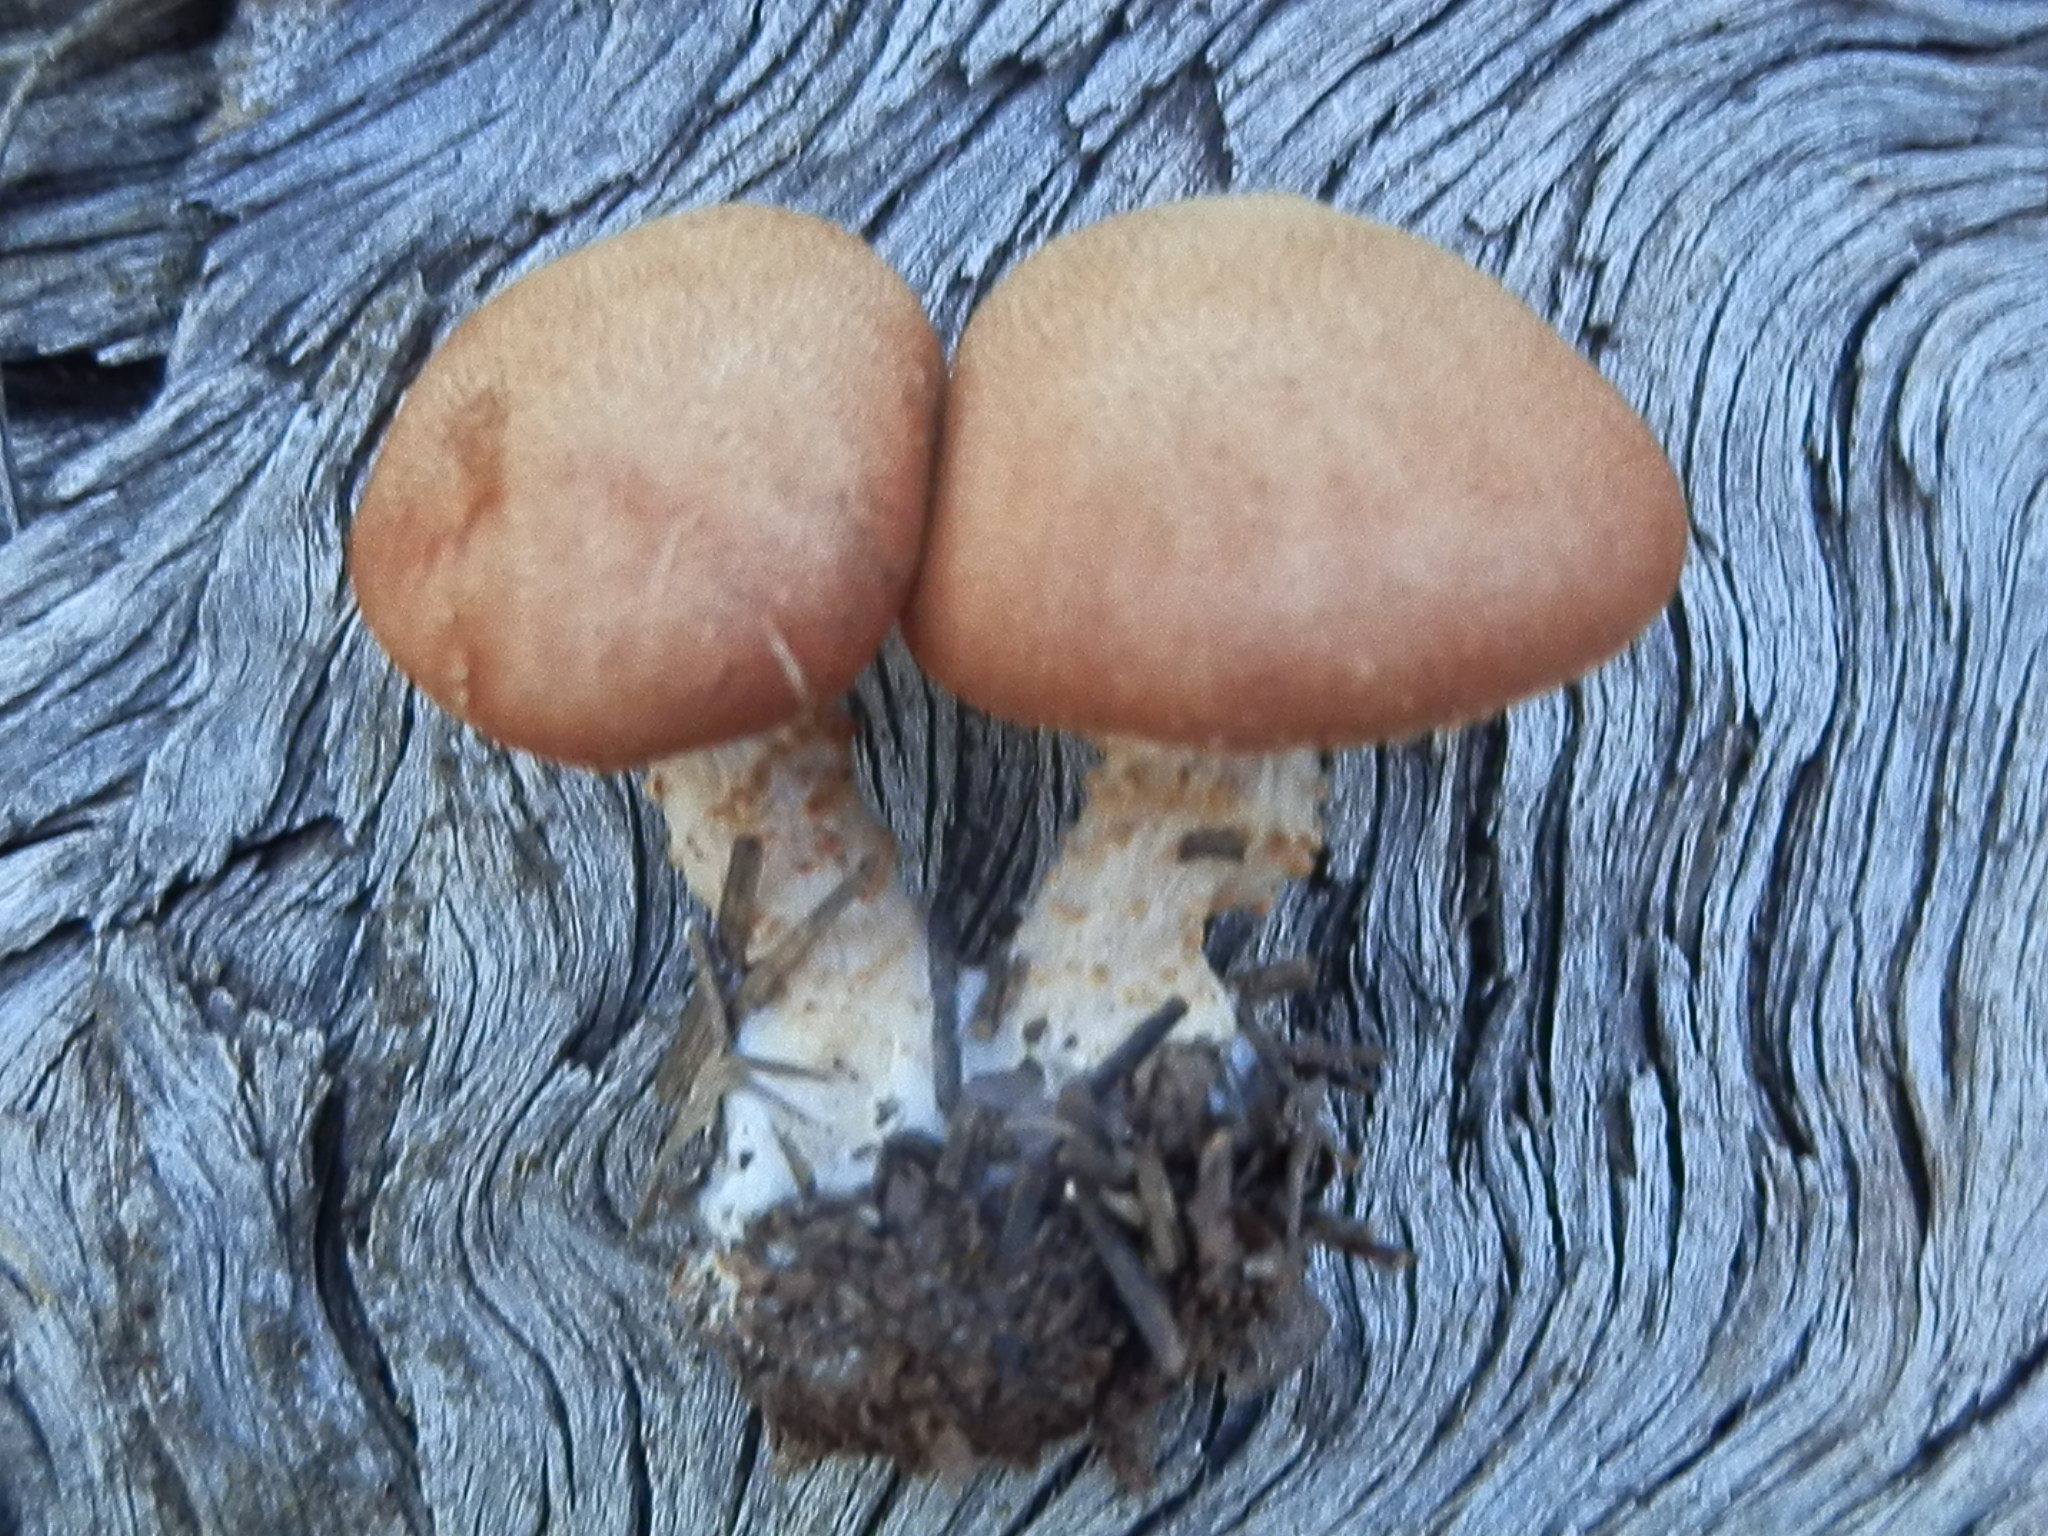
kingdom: Fungi
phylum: Basidiomycota
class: Agaricomycetes
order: Agaricales
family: Agaricaceae
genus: Cystodermella
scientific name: Cystodermella cinnabarina
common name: Cinnabar powdercap
